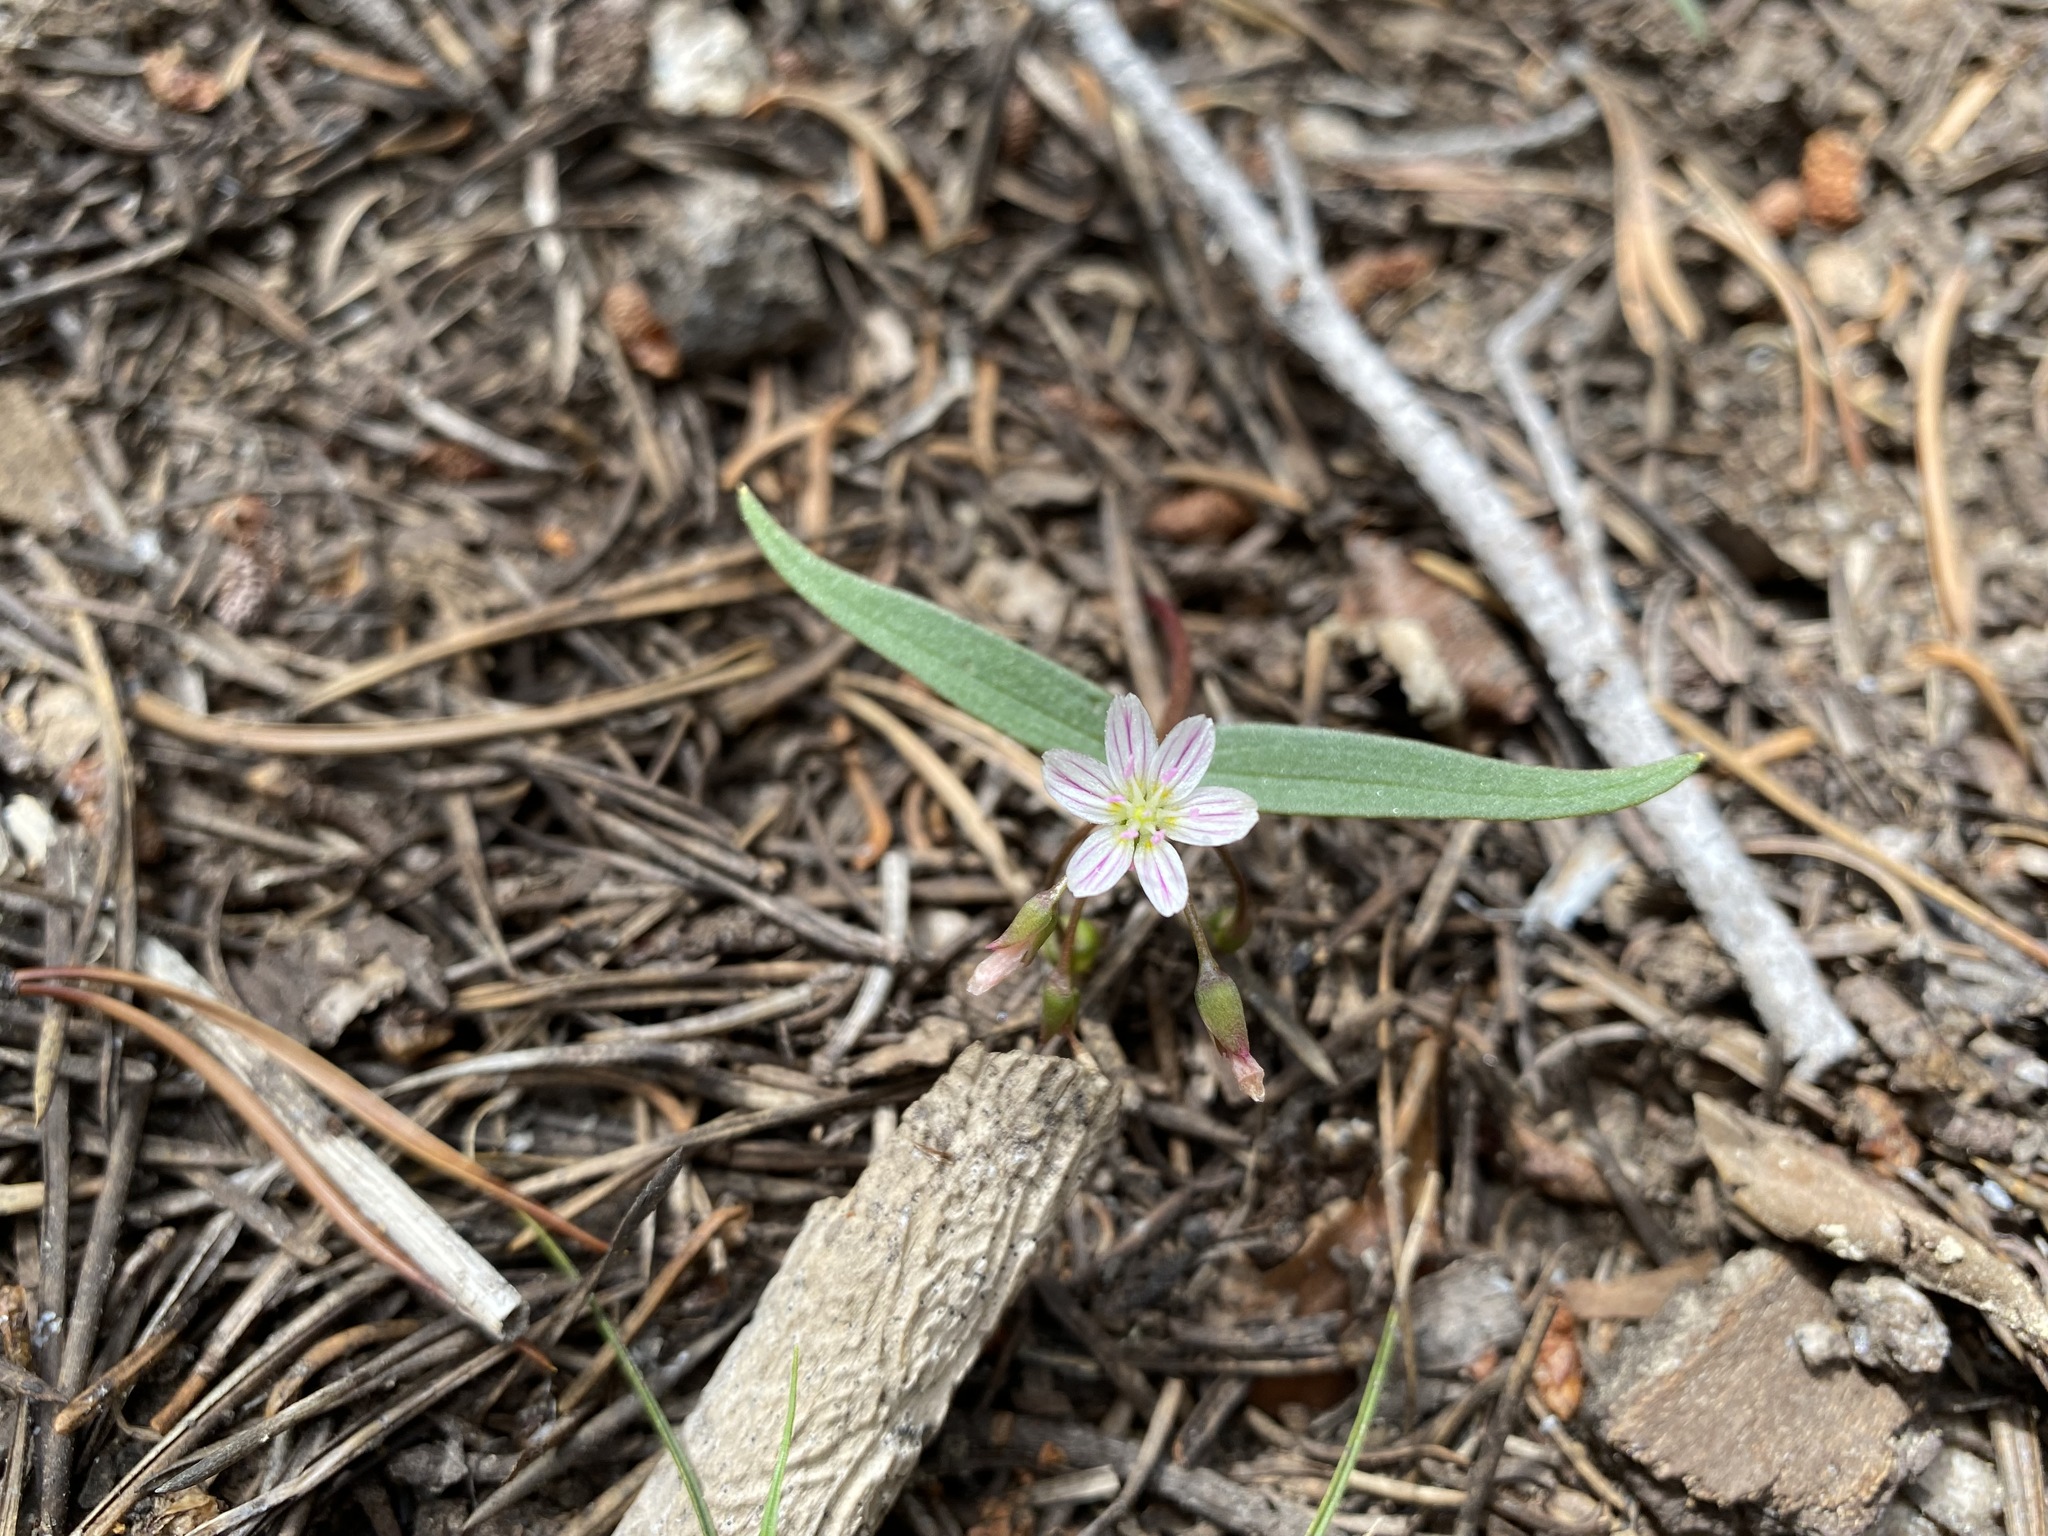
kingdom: Plantae
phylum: Tracheophyta
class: Magnoliopsida
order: Caryophyllales
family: Montiaceae
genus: Claytonia
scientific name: Claytonia lanceolata
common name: Western spring-beauty
